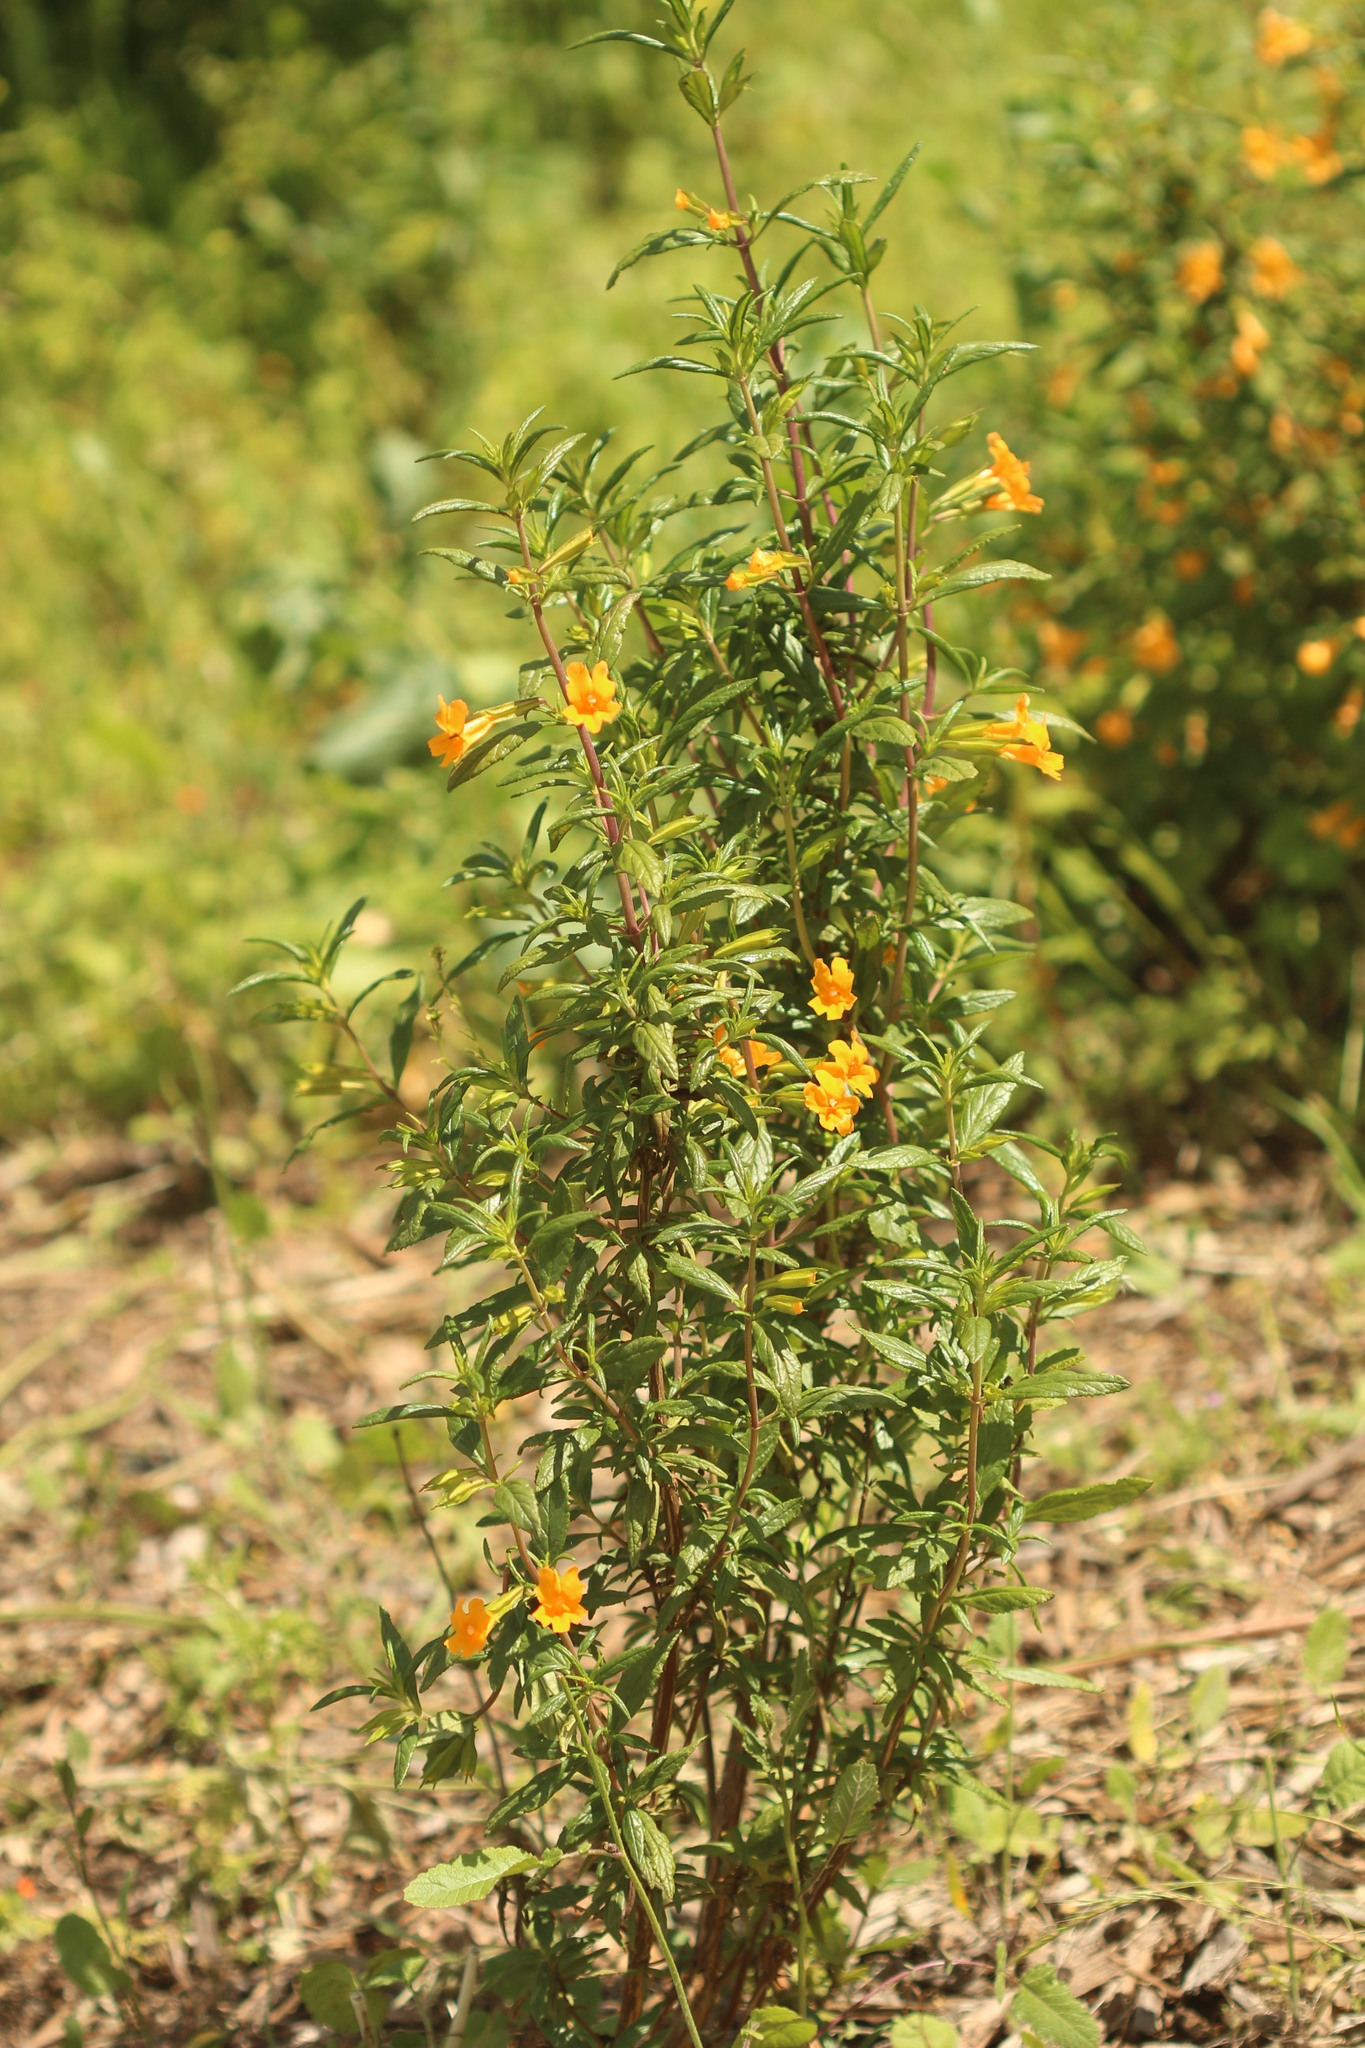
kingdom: Plantae
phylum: Tracheophyta
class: Magnoliopsida
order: Lamiales
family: Phrymaceae
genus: Diplacus
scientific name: Diplacus aurantiacus
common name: Bush monkey-flower
